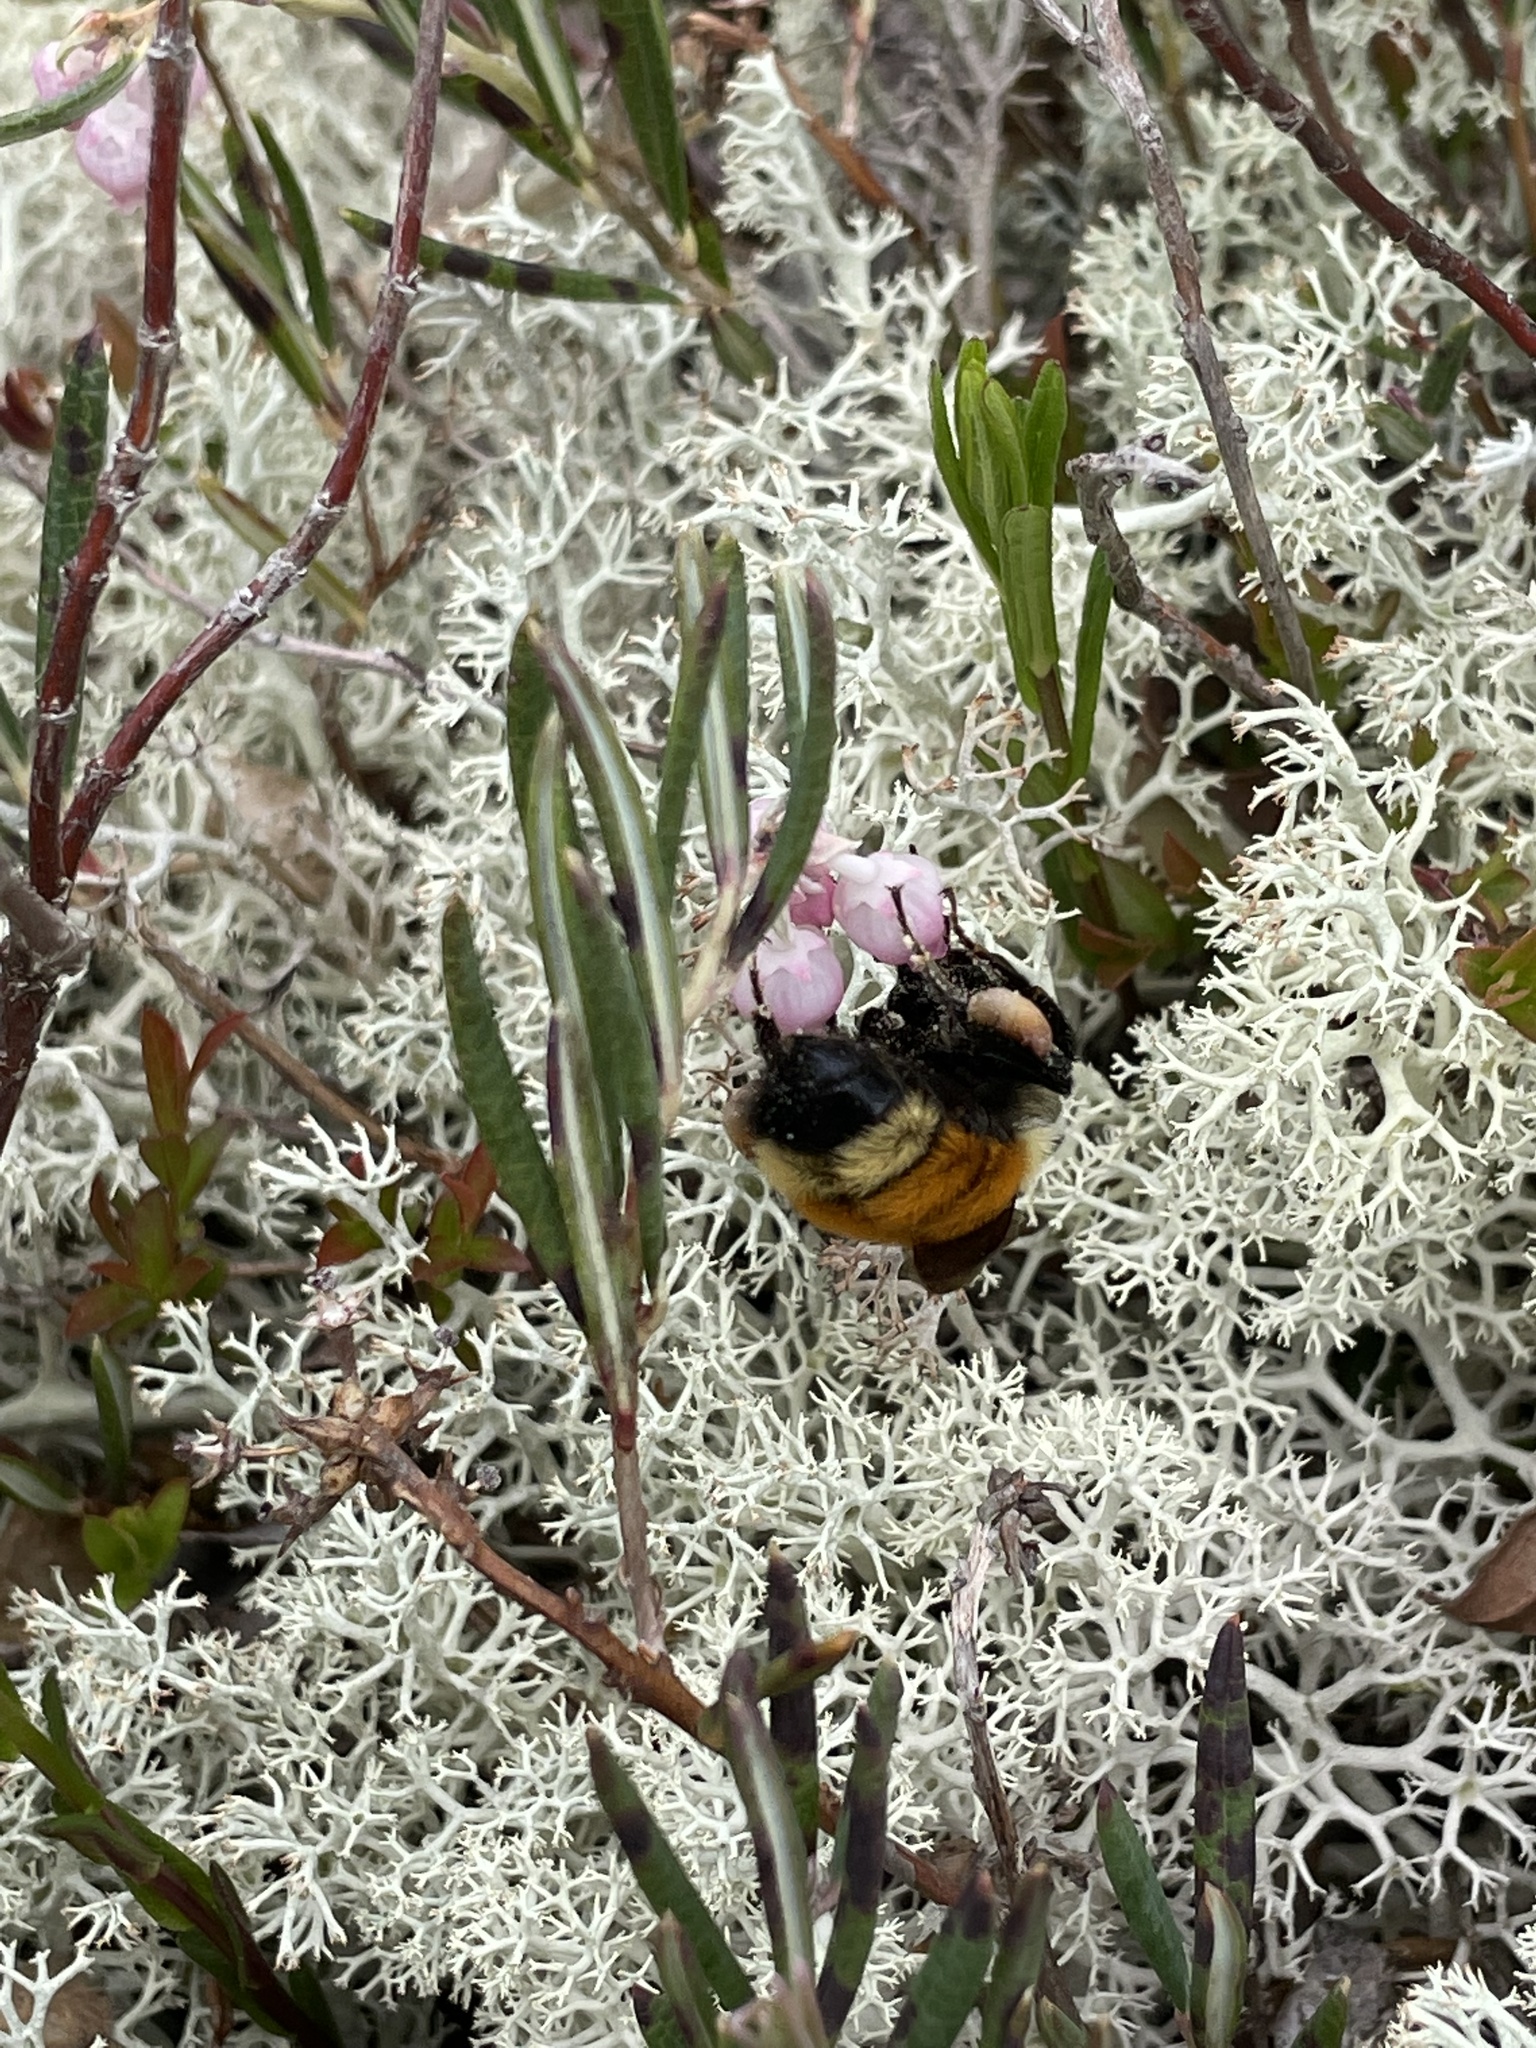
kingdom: Animalia
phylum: Arthropoda
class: Insecta
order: Hymenoptera
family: Apidae
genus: Bombus
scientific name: Bombus ternarius
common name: Tri-colored bumble bee
